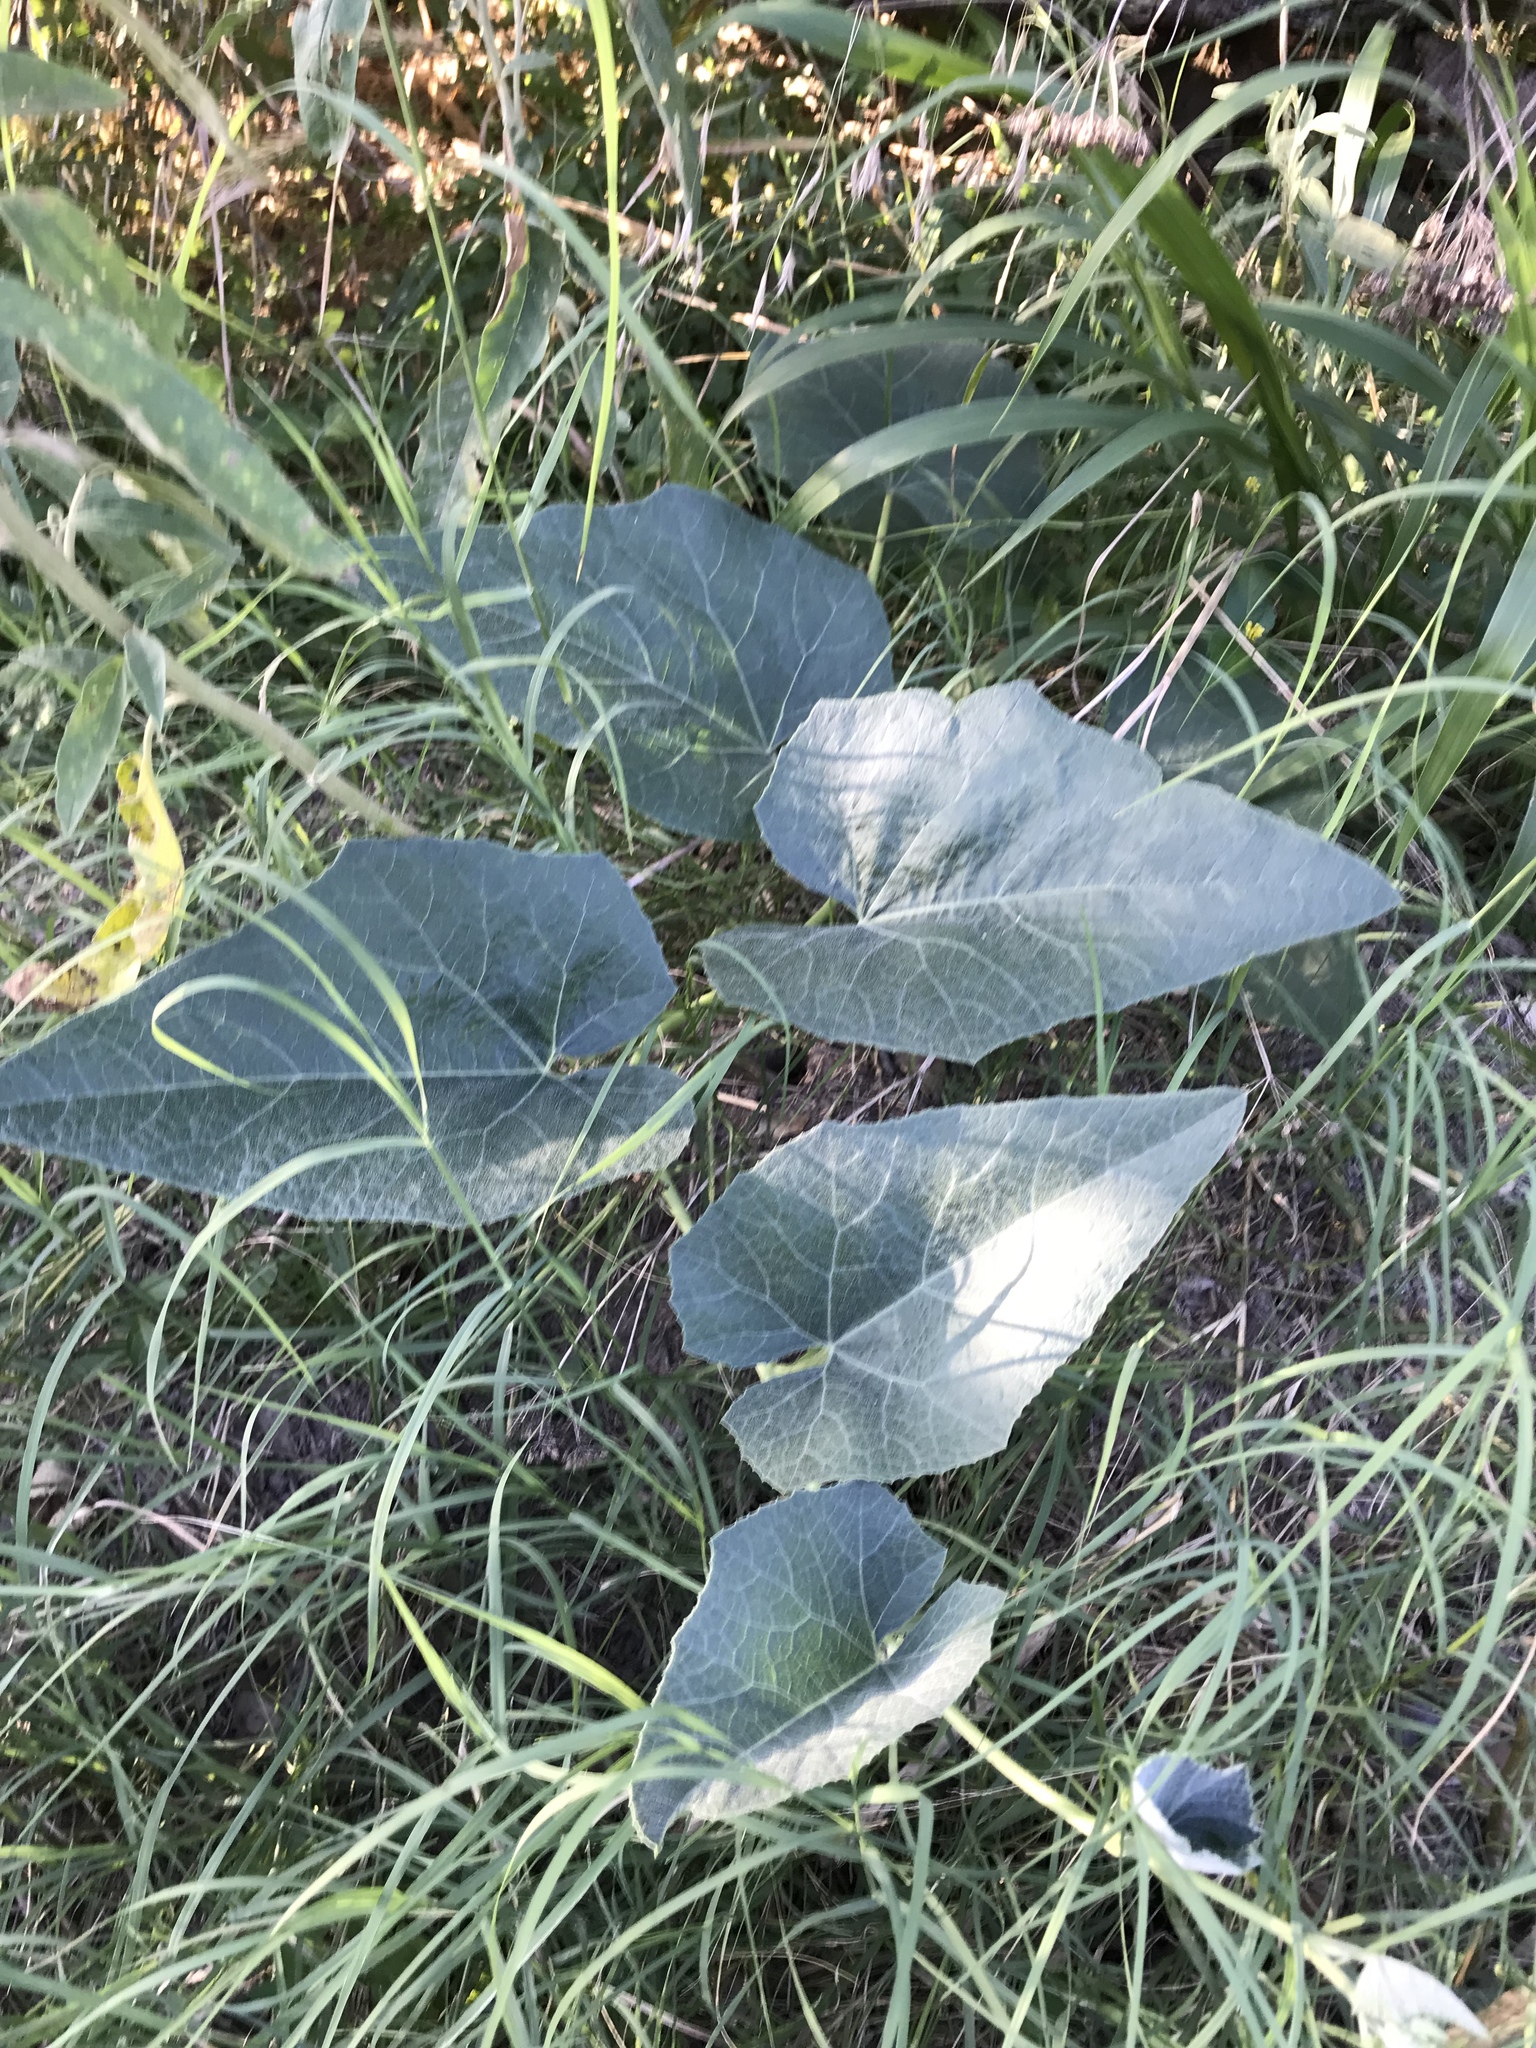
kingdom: Plantae
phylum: Tracheophyta
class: Magnoliopsida
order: Cucurbitales
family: Cucurbitaceae
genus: Cucurbita
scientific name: Cucurbita foetidissima
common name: Buffalo gourd
